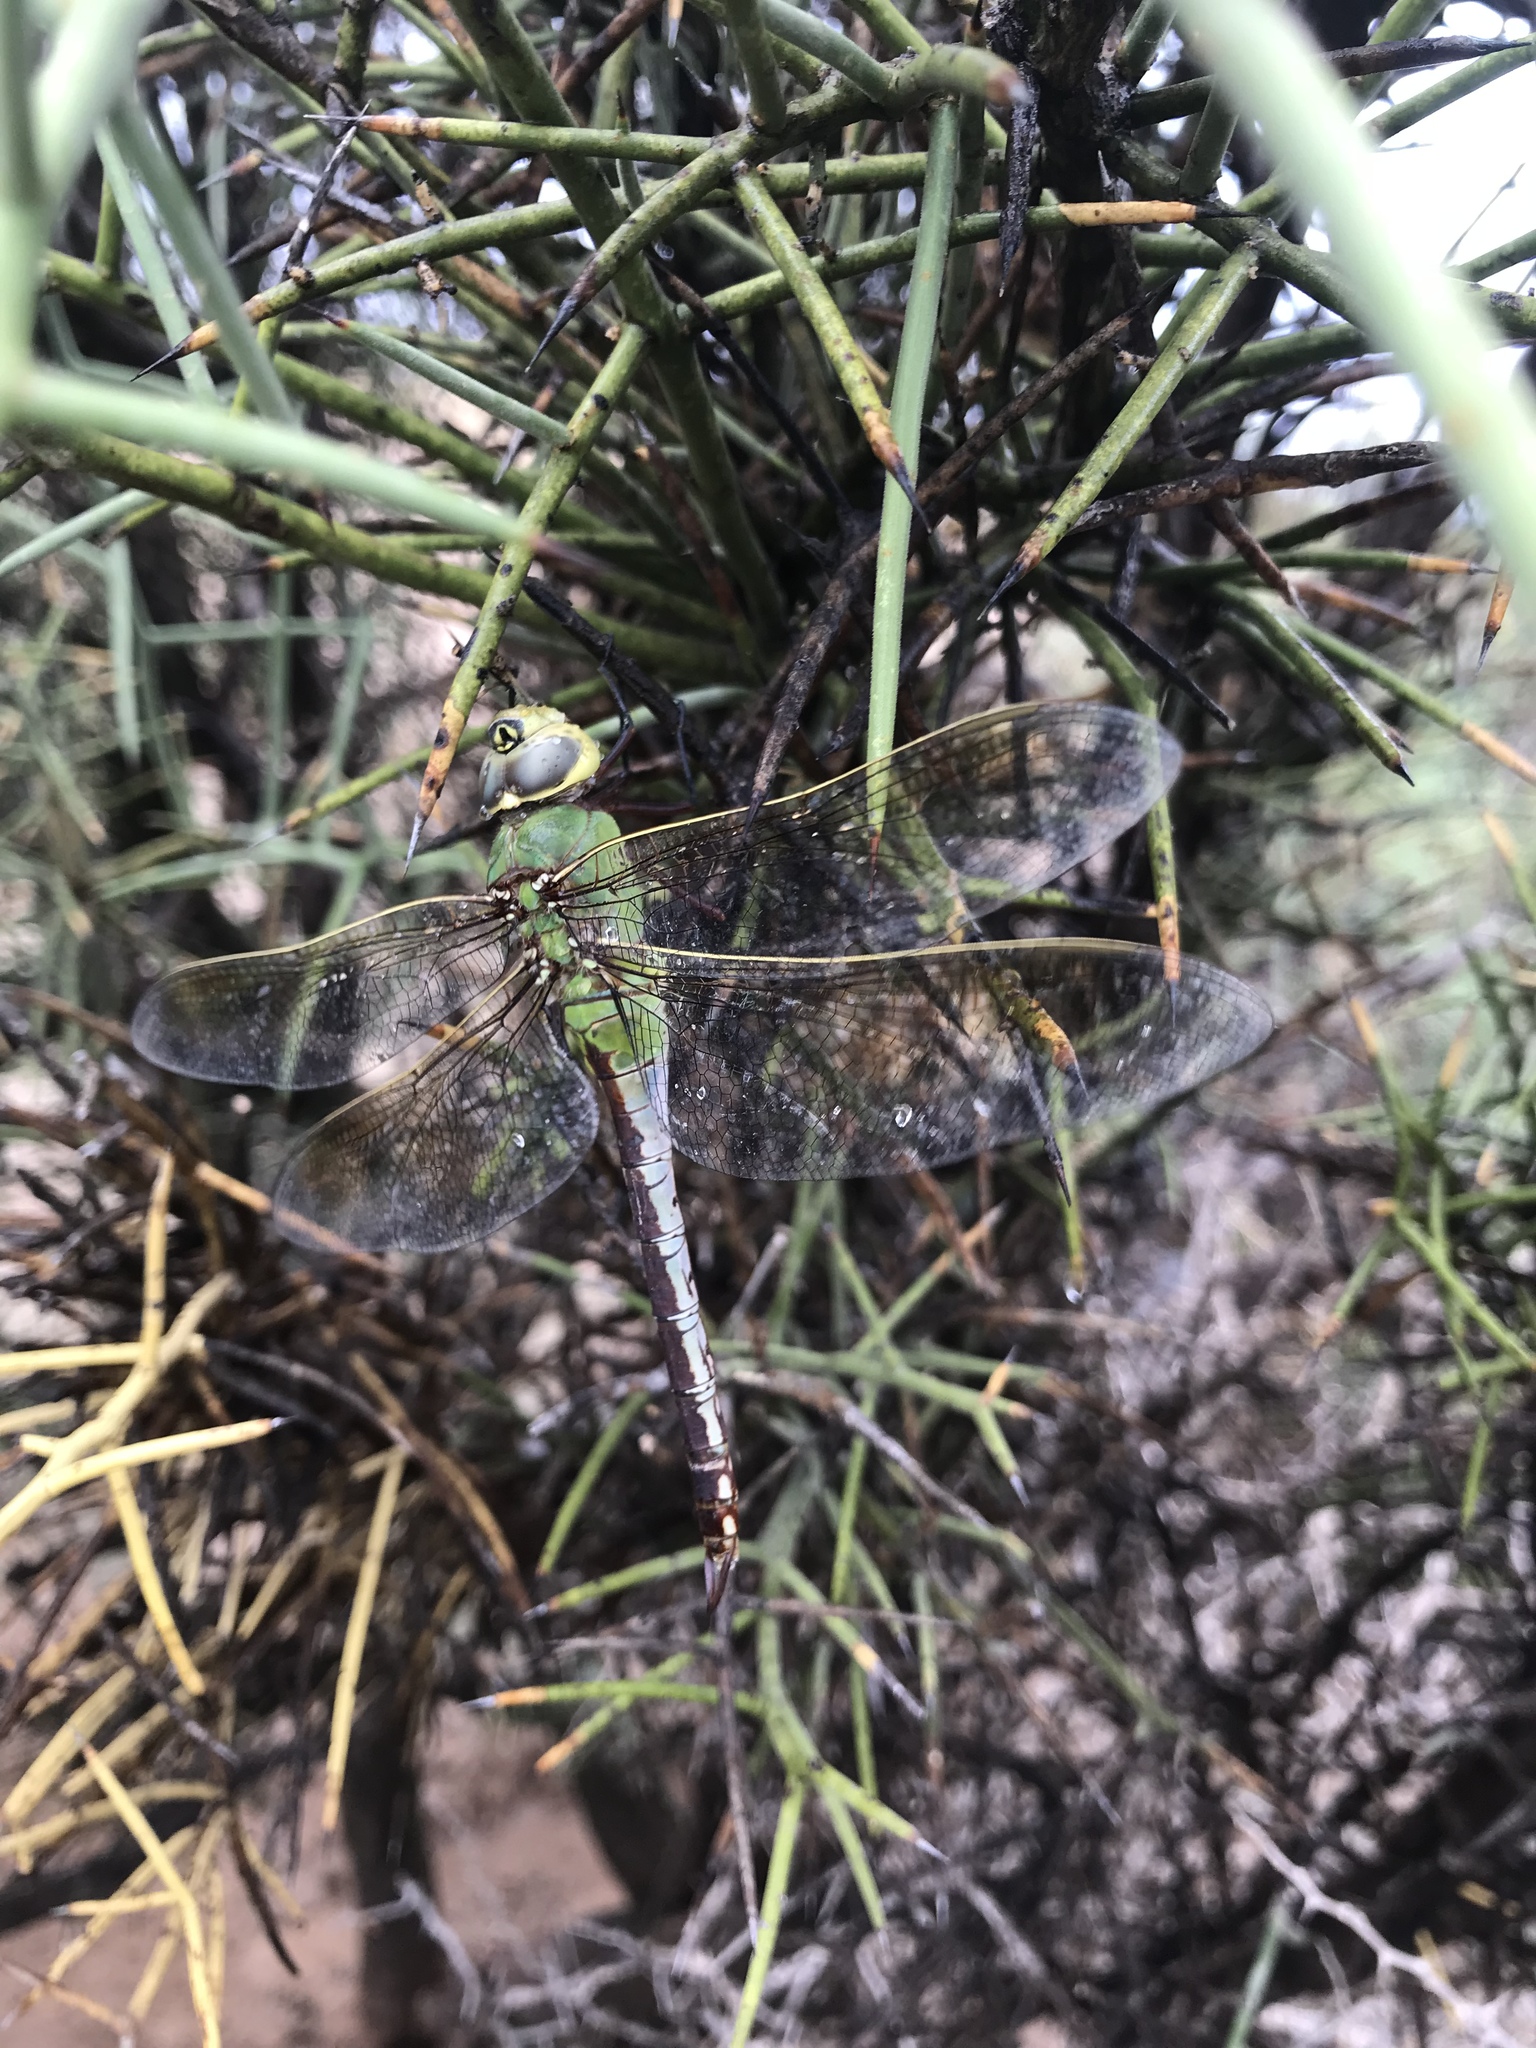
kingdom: Animalia
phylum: Arthropoda
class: Insecta
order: Odonata
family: Aeshnidae
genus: Anax
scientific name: Anax junius
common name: Common green darner
